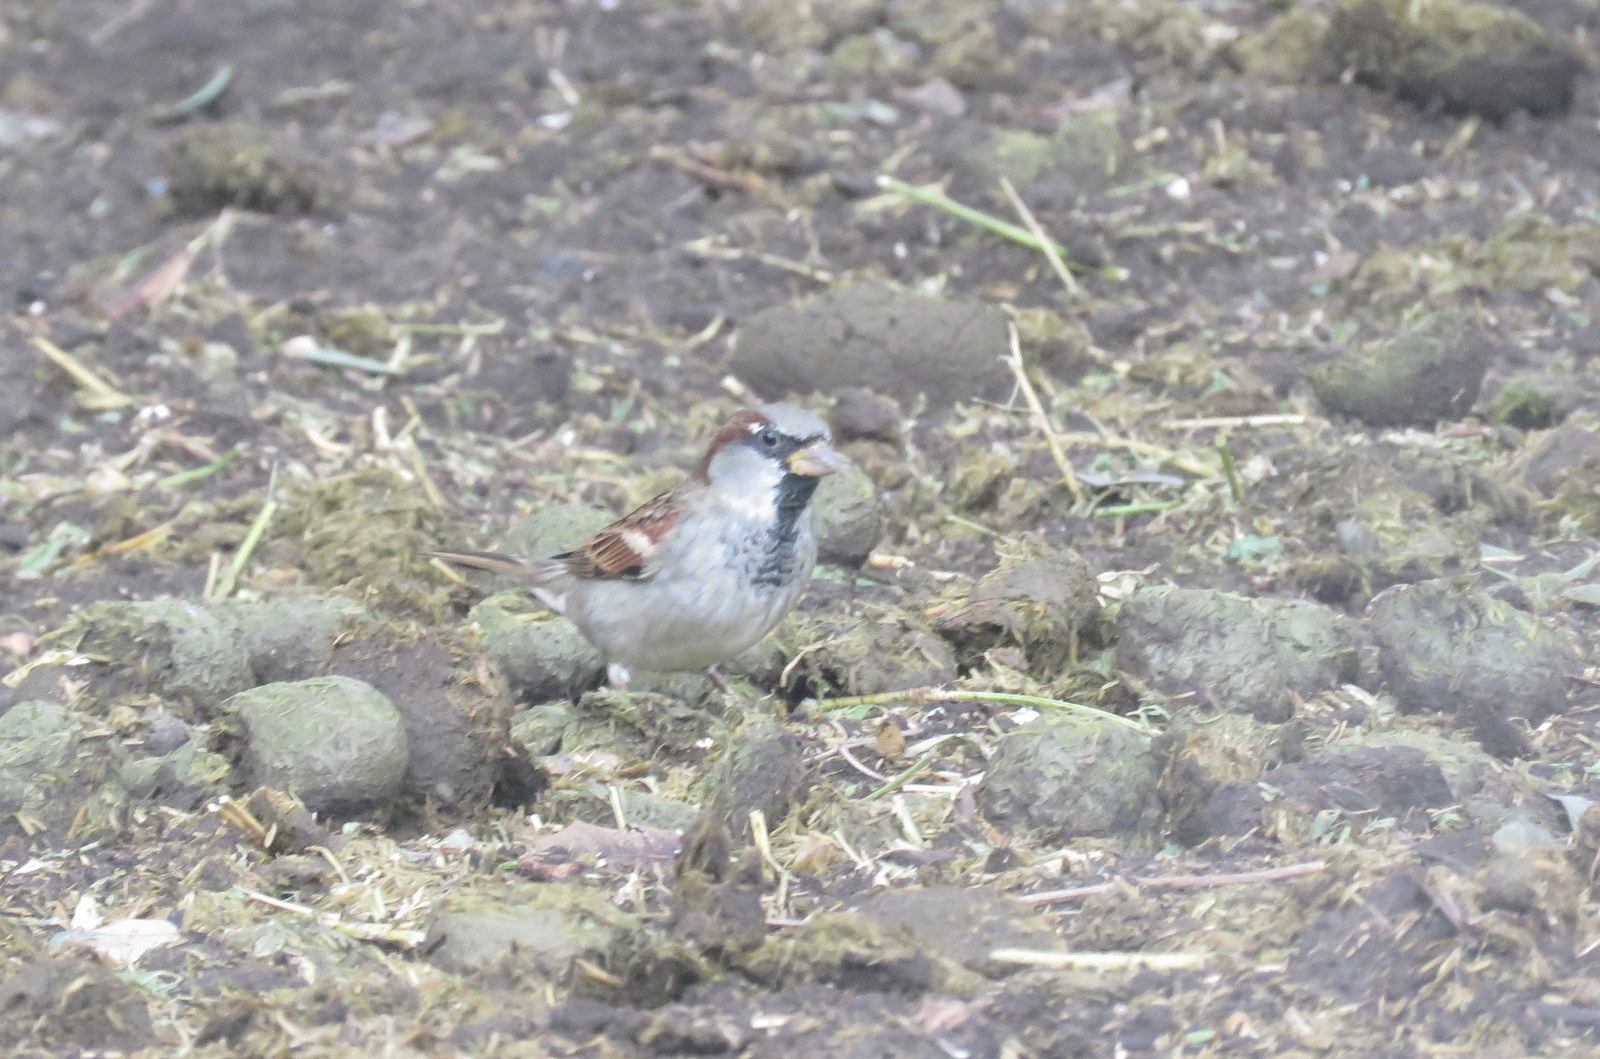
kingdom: Animalia
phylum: Chordata
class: Aves
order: Passeriformes
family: Passeridae
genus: Passer
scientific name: Passer domesticus
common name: House sparrow
